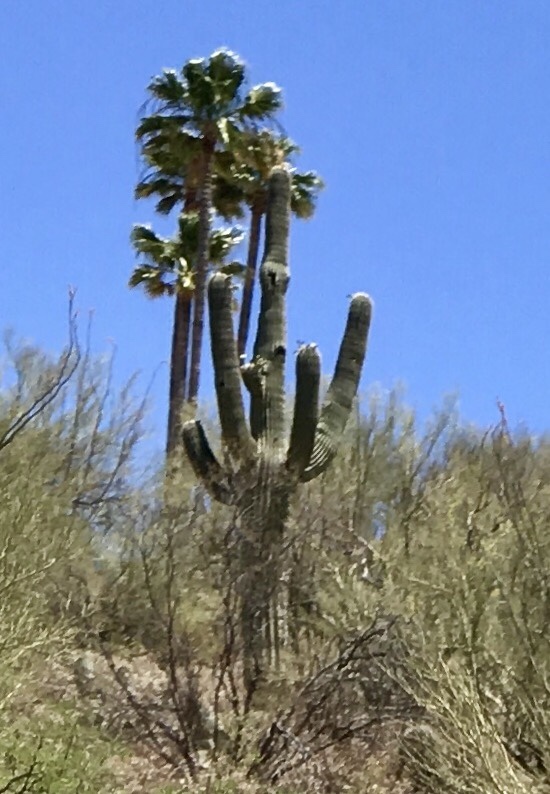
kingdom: Plantae
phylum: Tracheophyta
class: Magnoliopsida
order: Caryophyllales
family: Cactaceae
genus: Carnegiea
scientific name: Carnegiea gigantea
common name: Saguaro
